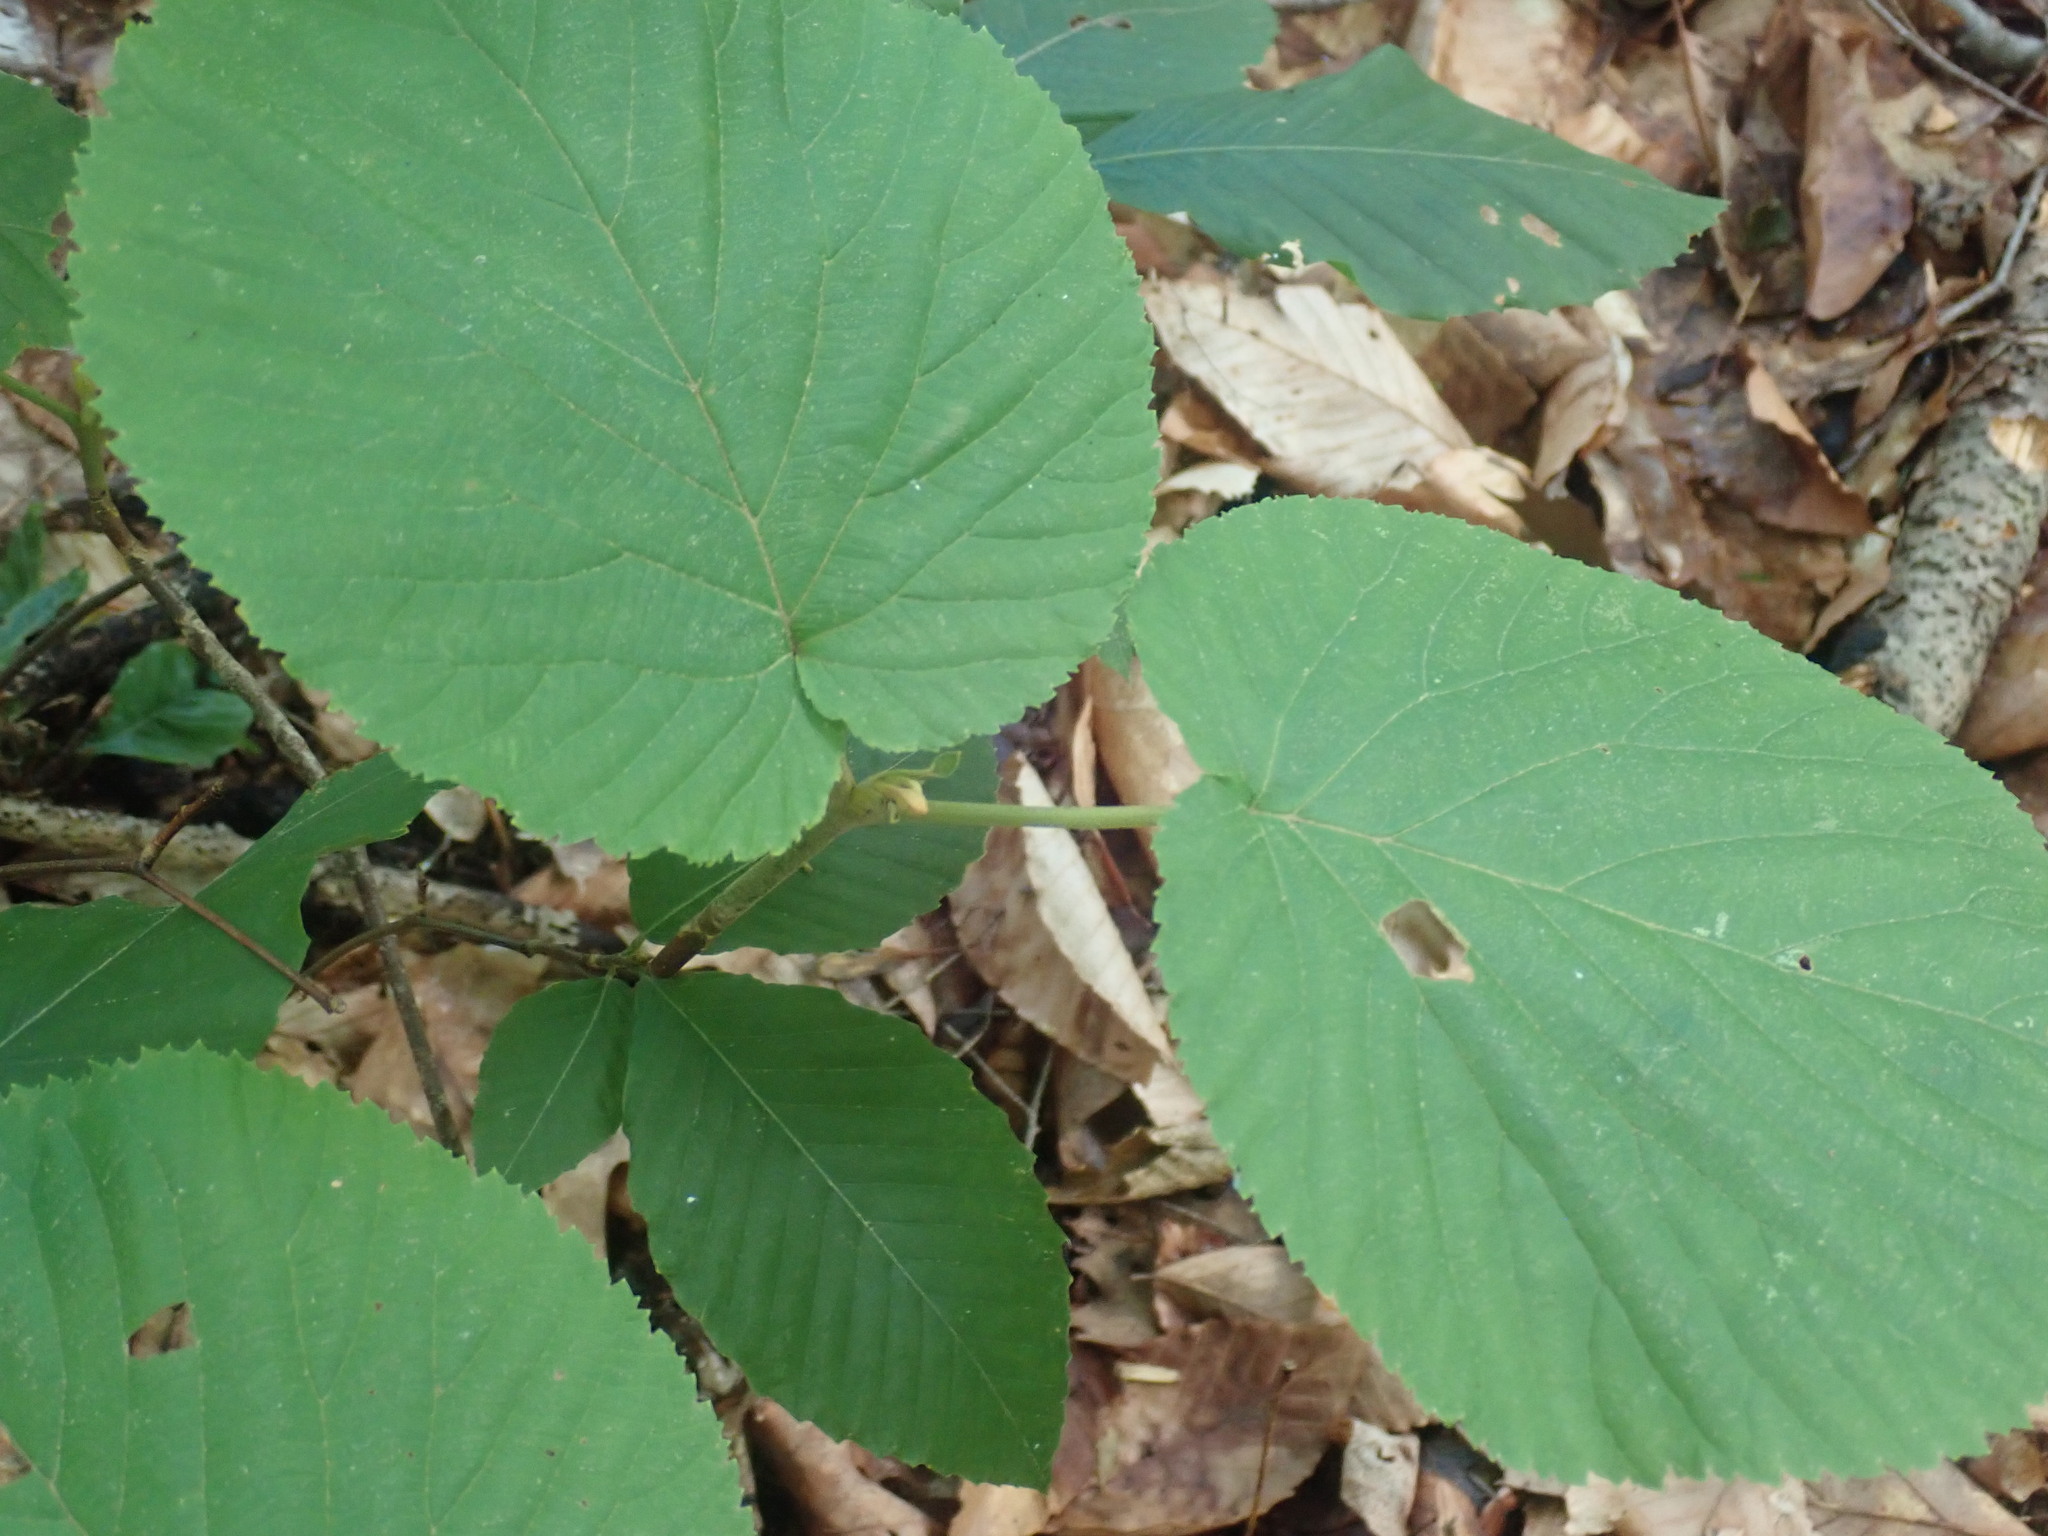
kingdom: Plantae
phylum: Tracheophyta
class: Magnoliopsida
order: Dipsacales
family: Viburnaceae
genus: Viburnum
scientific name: Viburnum lantanoides
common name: Hobblebush
